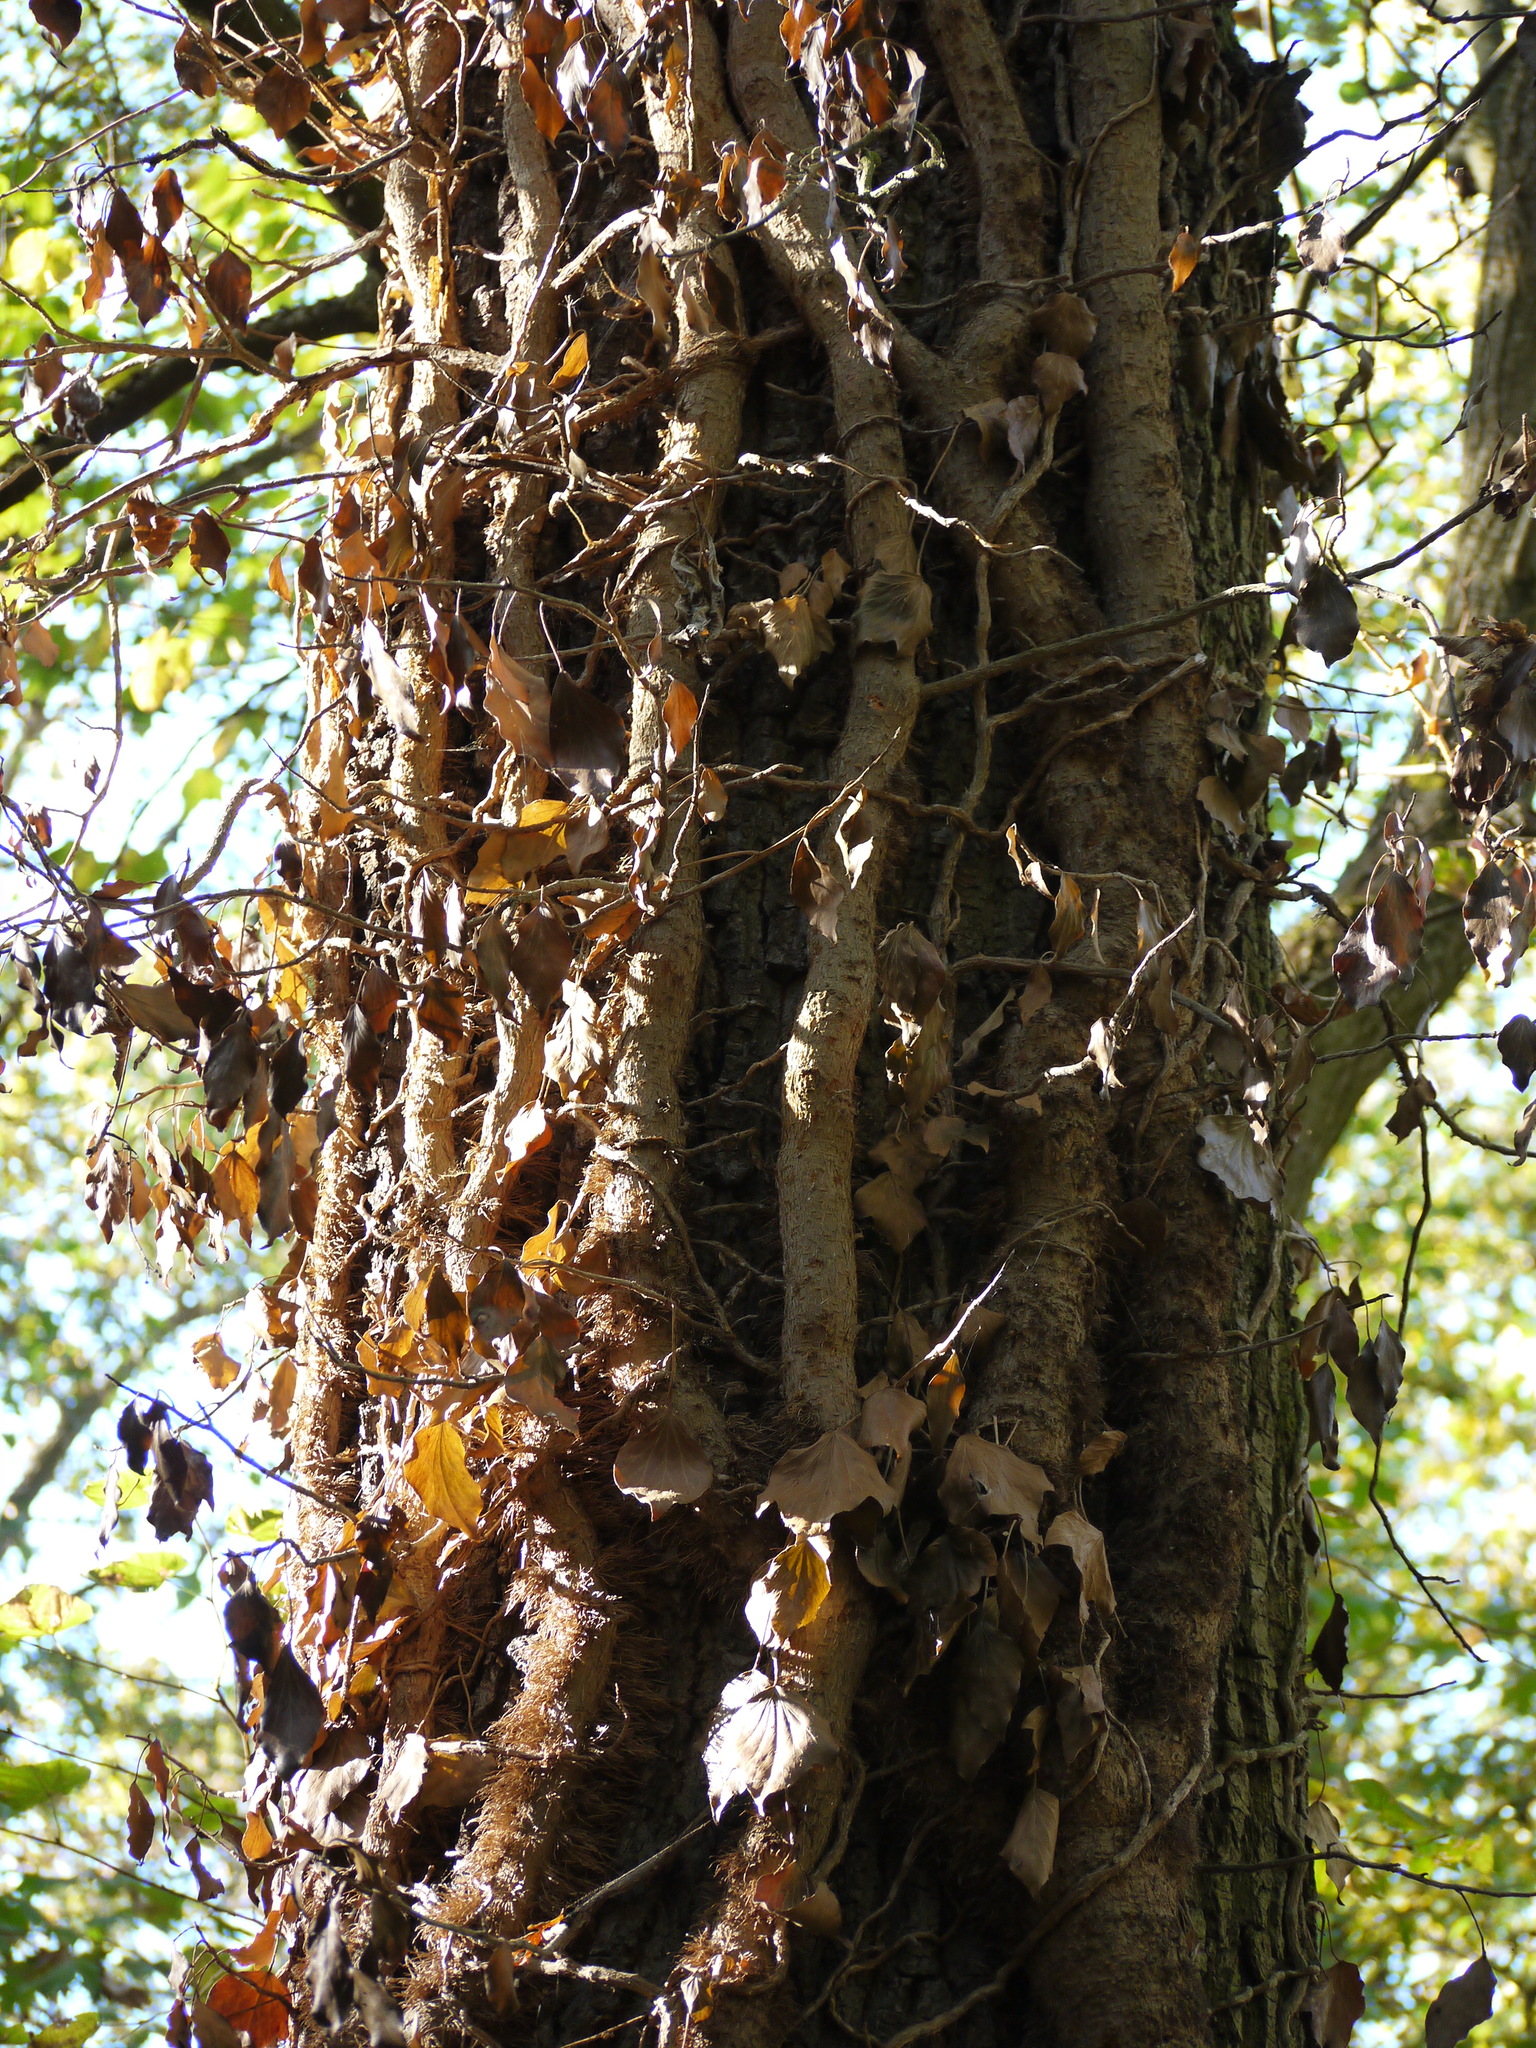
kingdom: Plantae
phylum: Tracheophyta
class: Magnoliopsida
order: Apiales
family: Araliaceae
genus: Hedera
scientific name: Hedera helix
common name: Ivy
